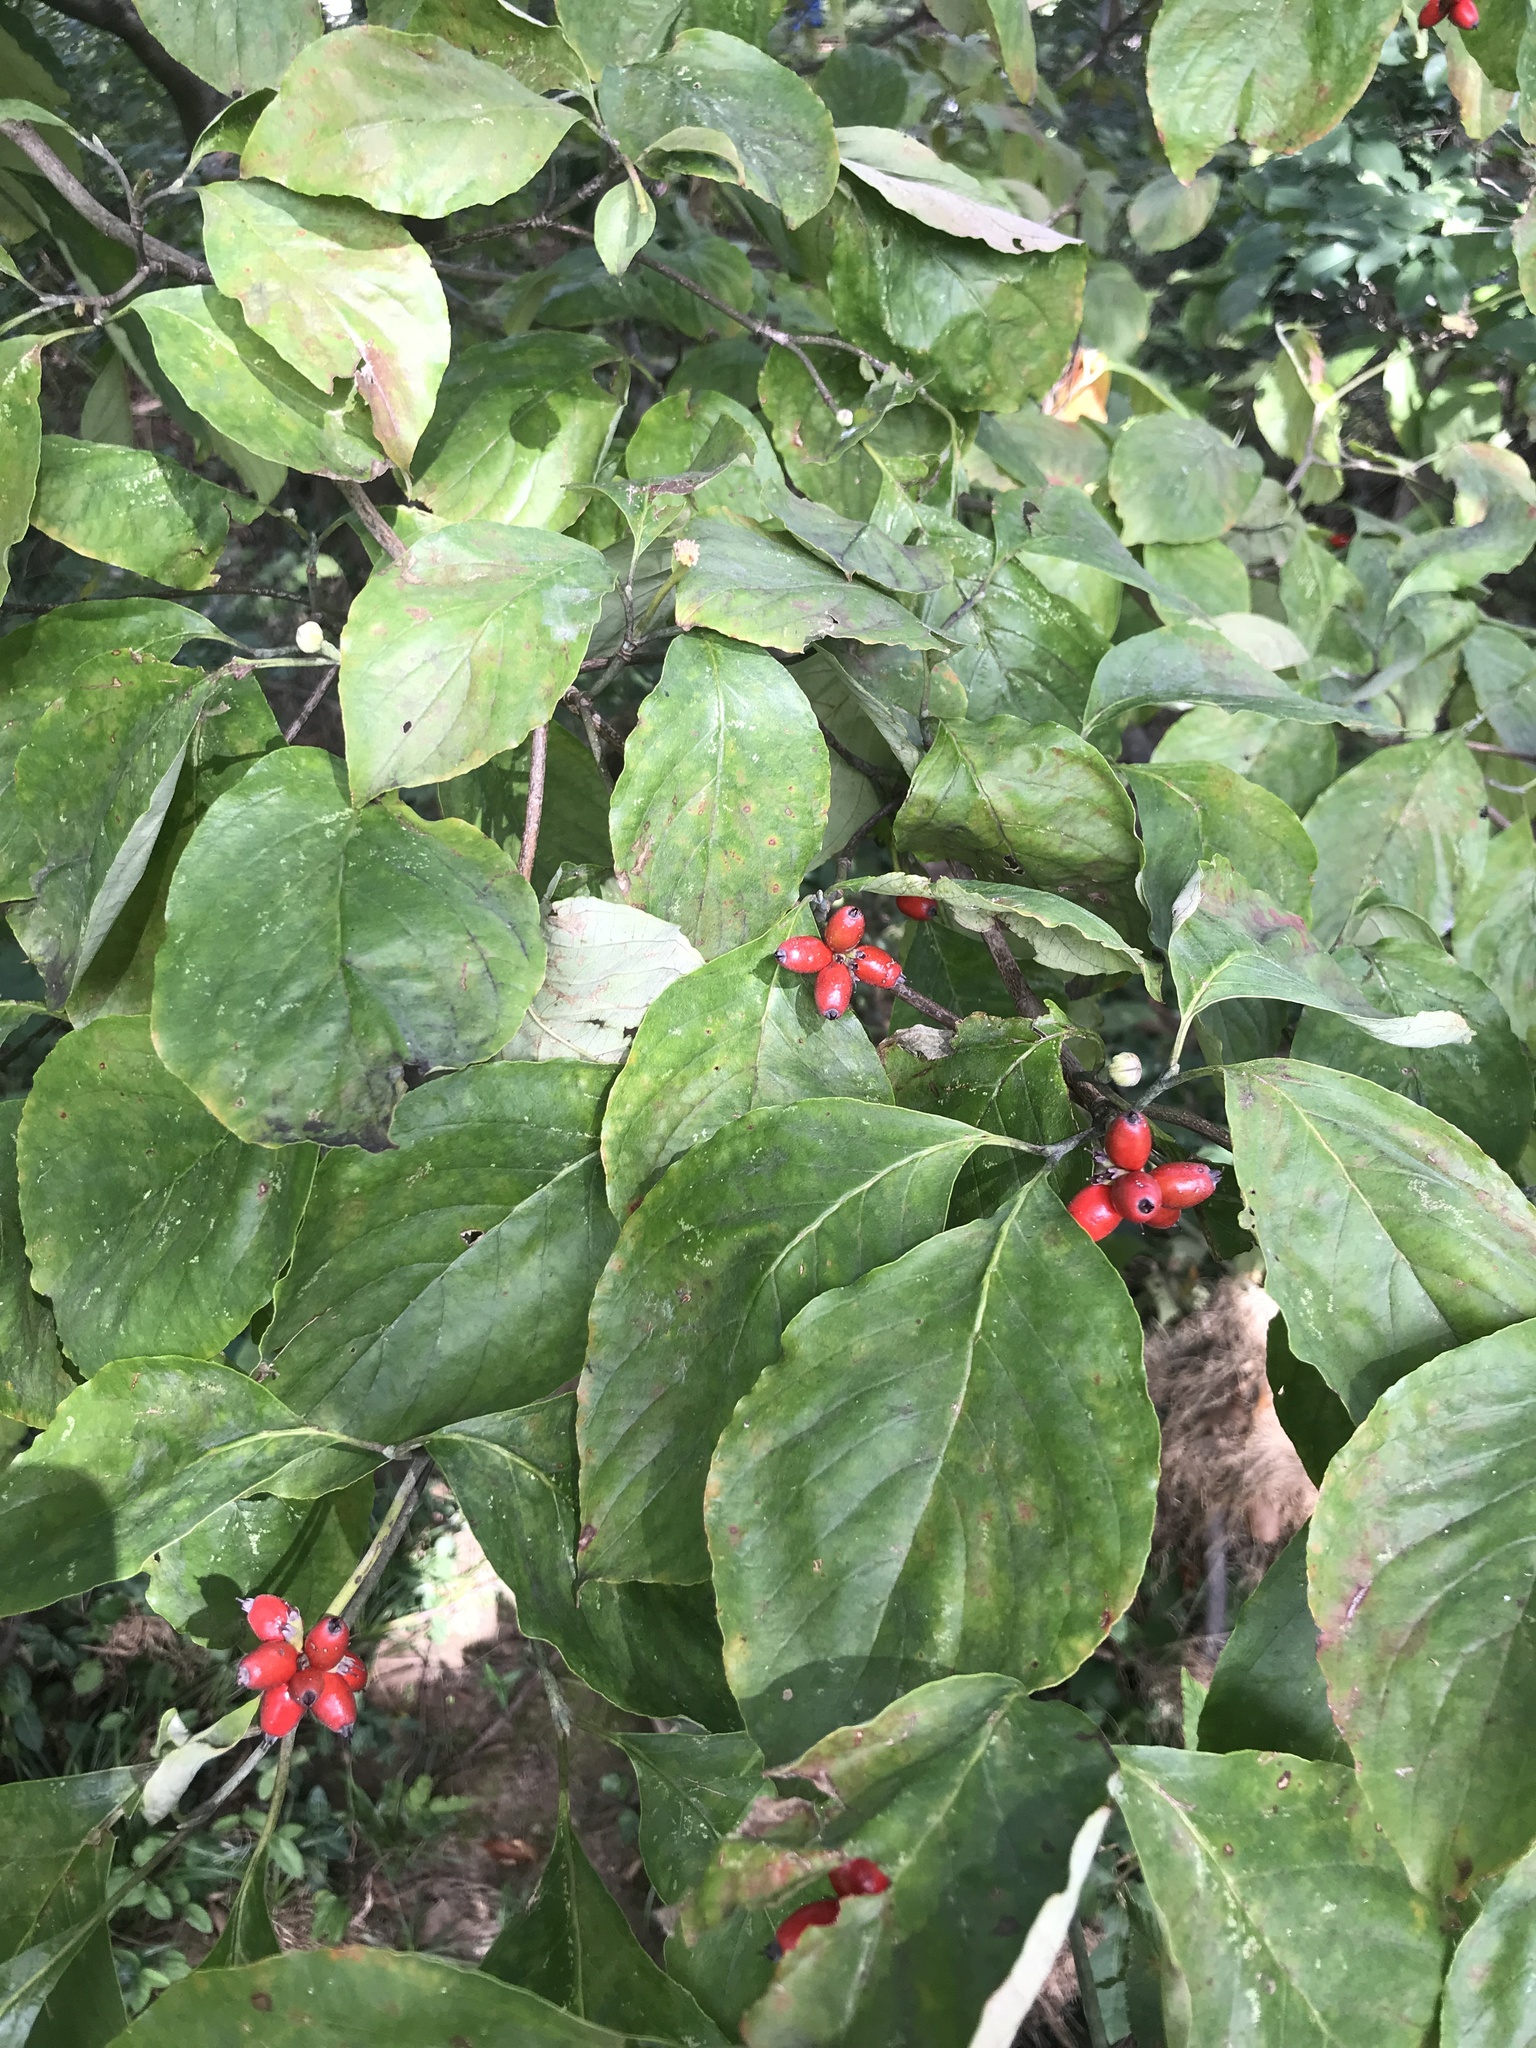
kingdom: Plantae
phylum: Tracheophyta
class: Magnoliopsida
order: Cornales
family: Cornaceae
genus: Cornus
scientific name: Cornus florida
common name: Flowering dogwood
